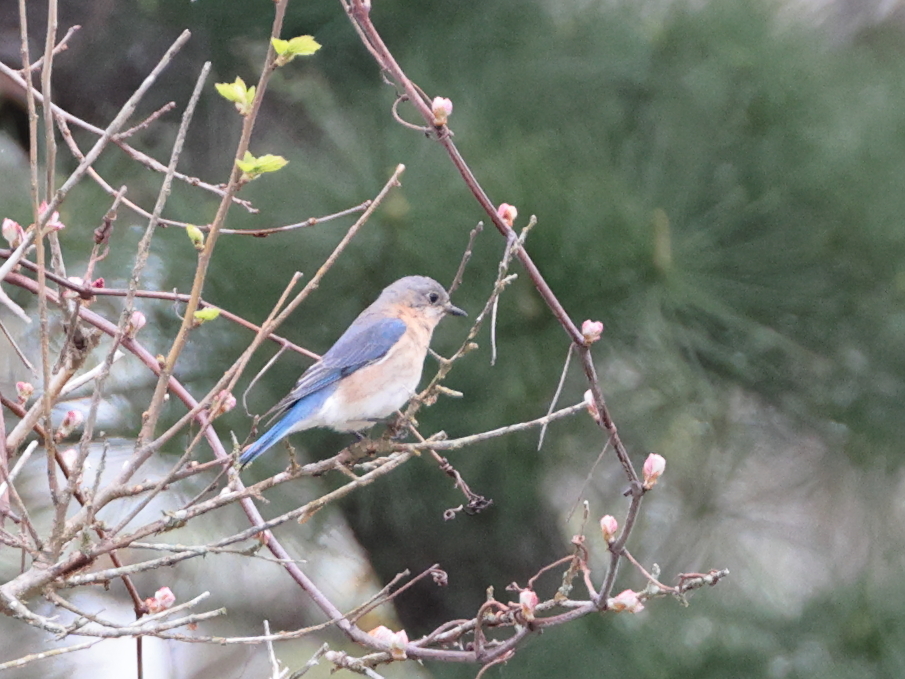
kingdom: Animalia
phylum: Chordata
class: Aves
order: Passeriformes
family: Turdidae
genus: Sialia
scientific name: Sialia sialis
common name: Eastern bluebird
